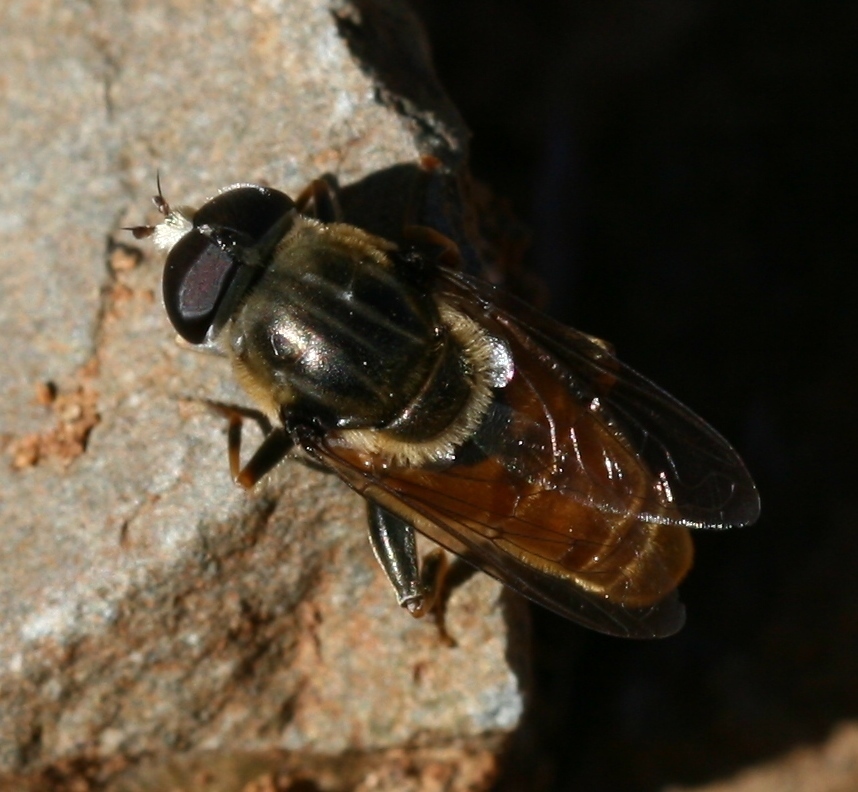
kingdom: Animalia
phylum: Arthropoda
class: Insecta
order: Diptera
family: Syrphidae
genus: Merodon
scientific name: Merodon pruni
